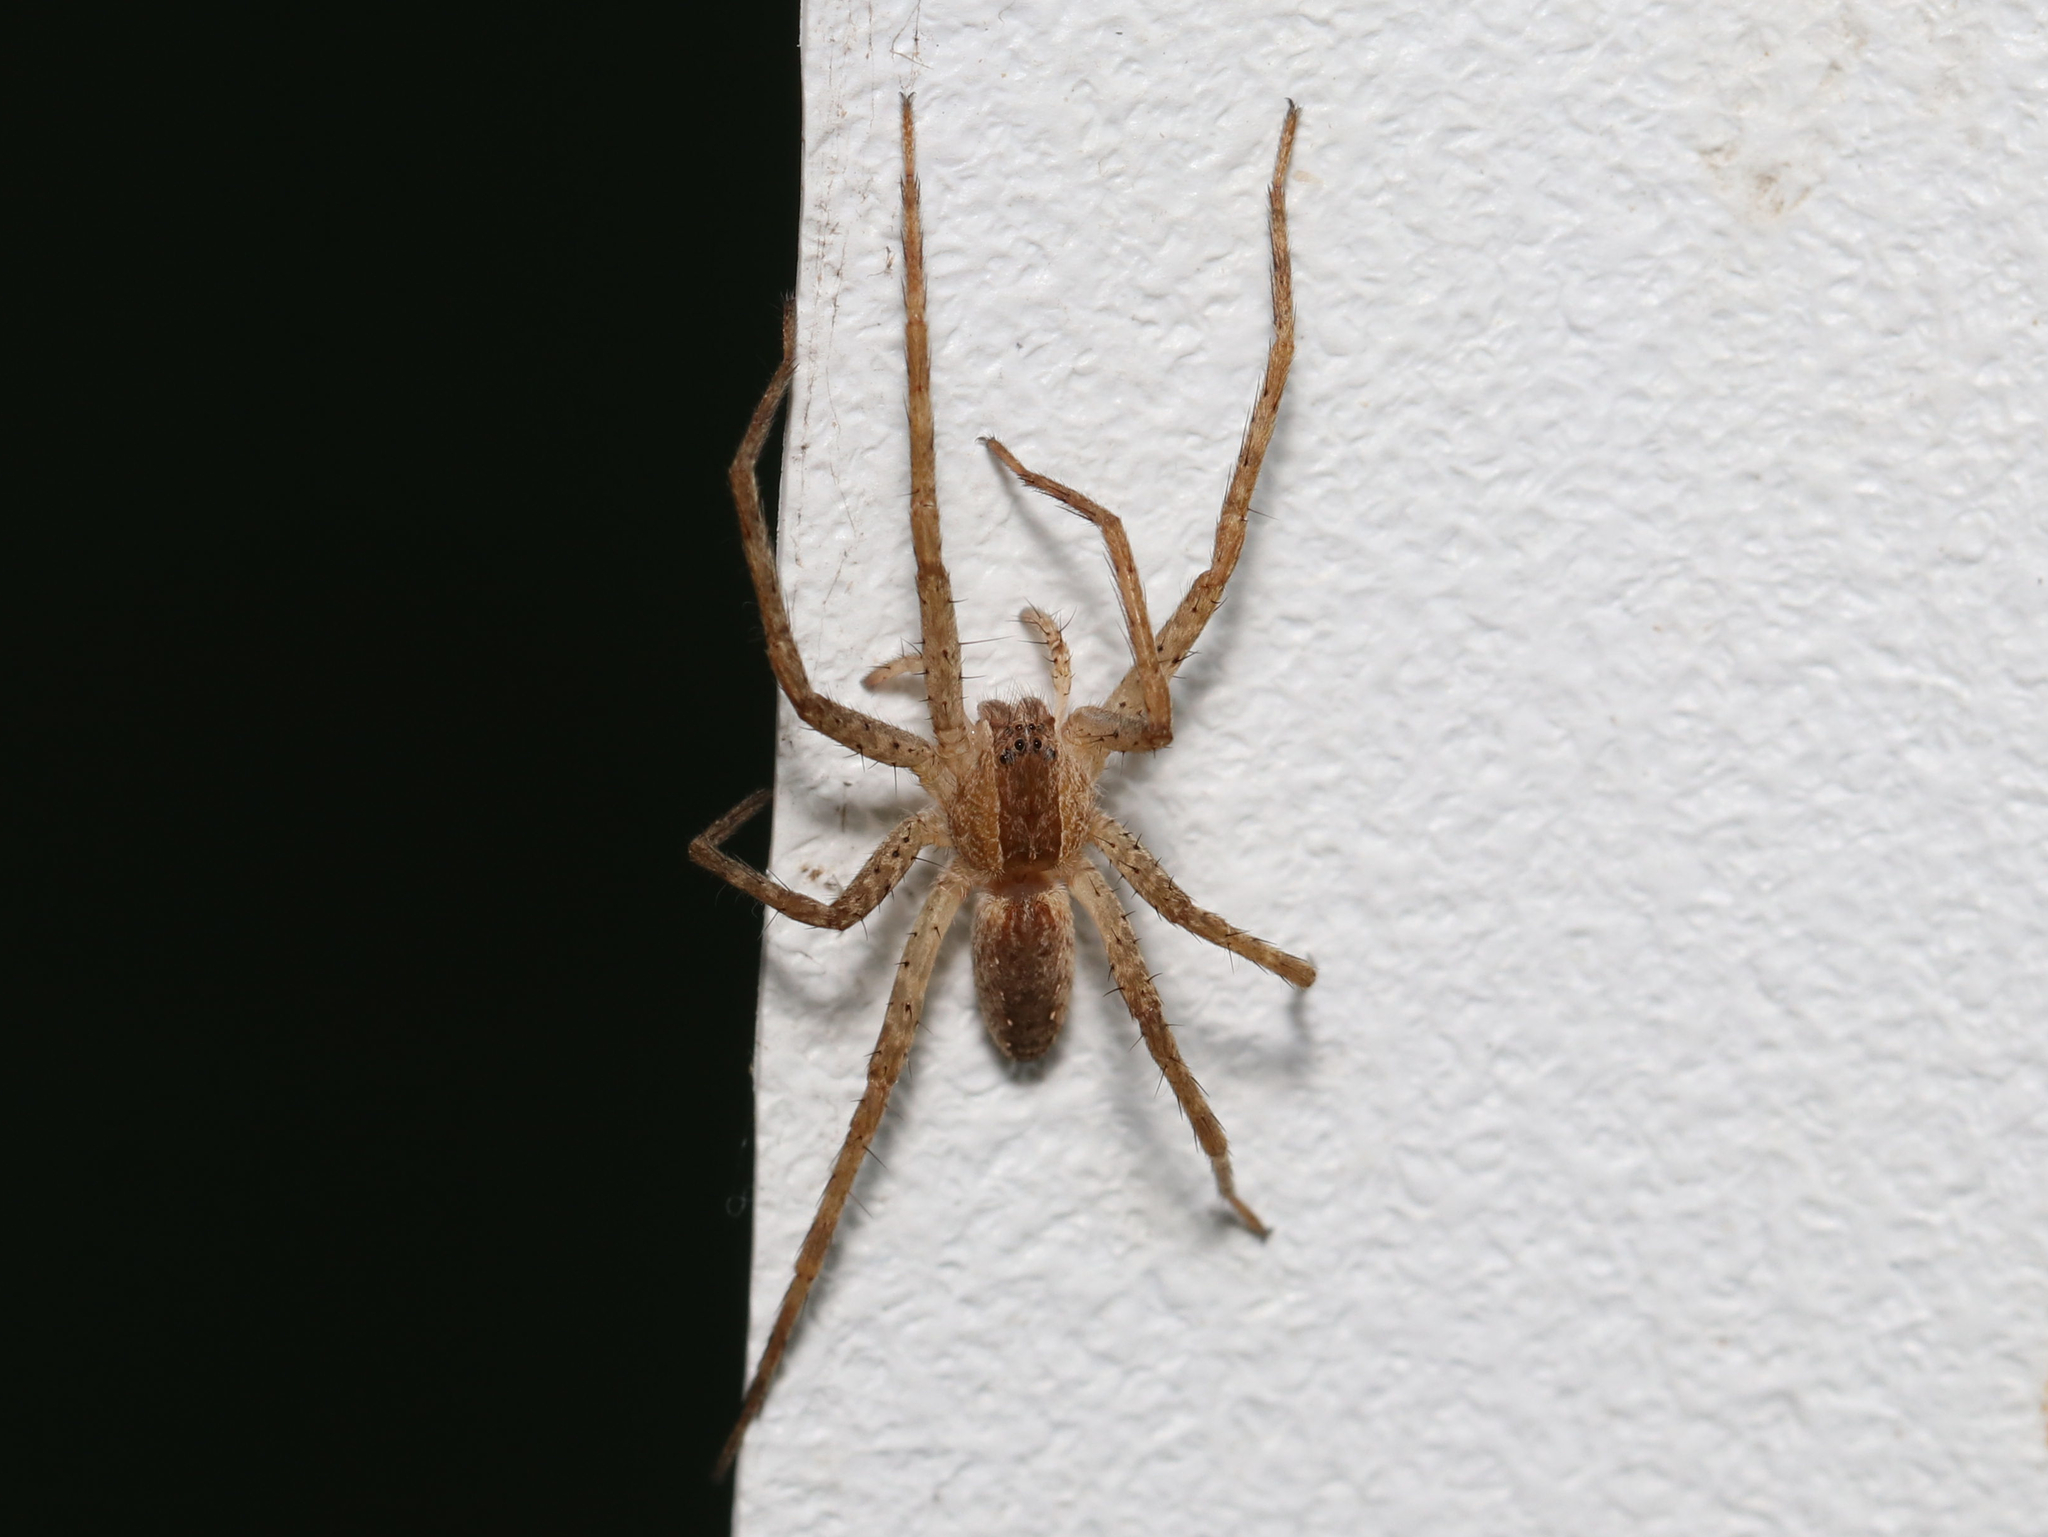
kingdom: Animalia
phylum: Arthropoda
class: Arachnida
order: Araneae
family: Pisauridae
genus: Pisaurina
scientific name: Pisaurina mira
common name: American nursery web spider
